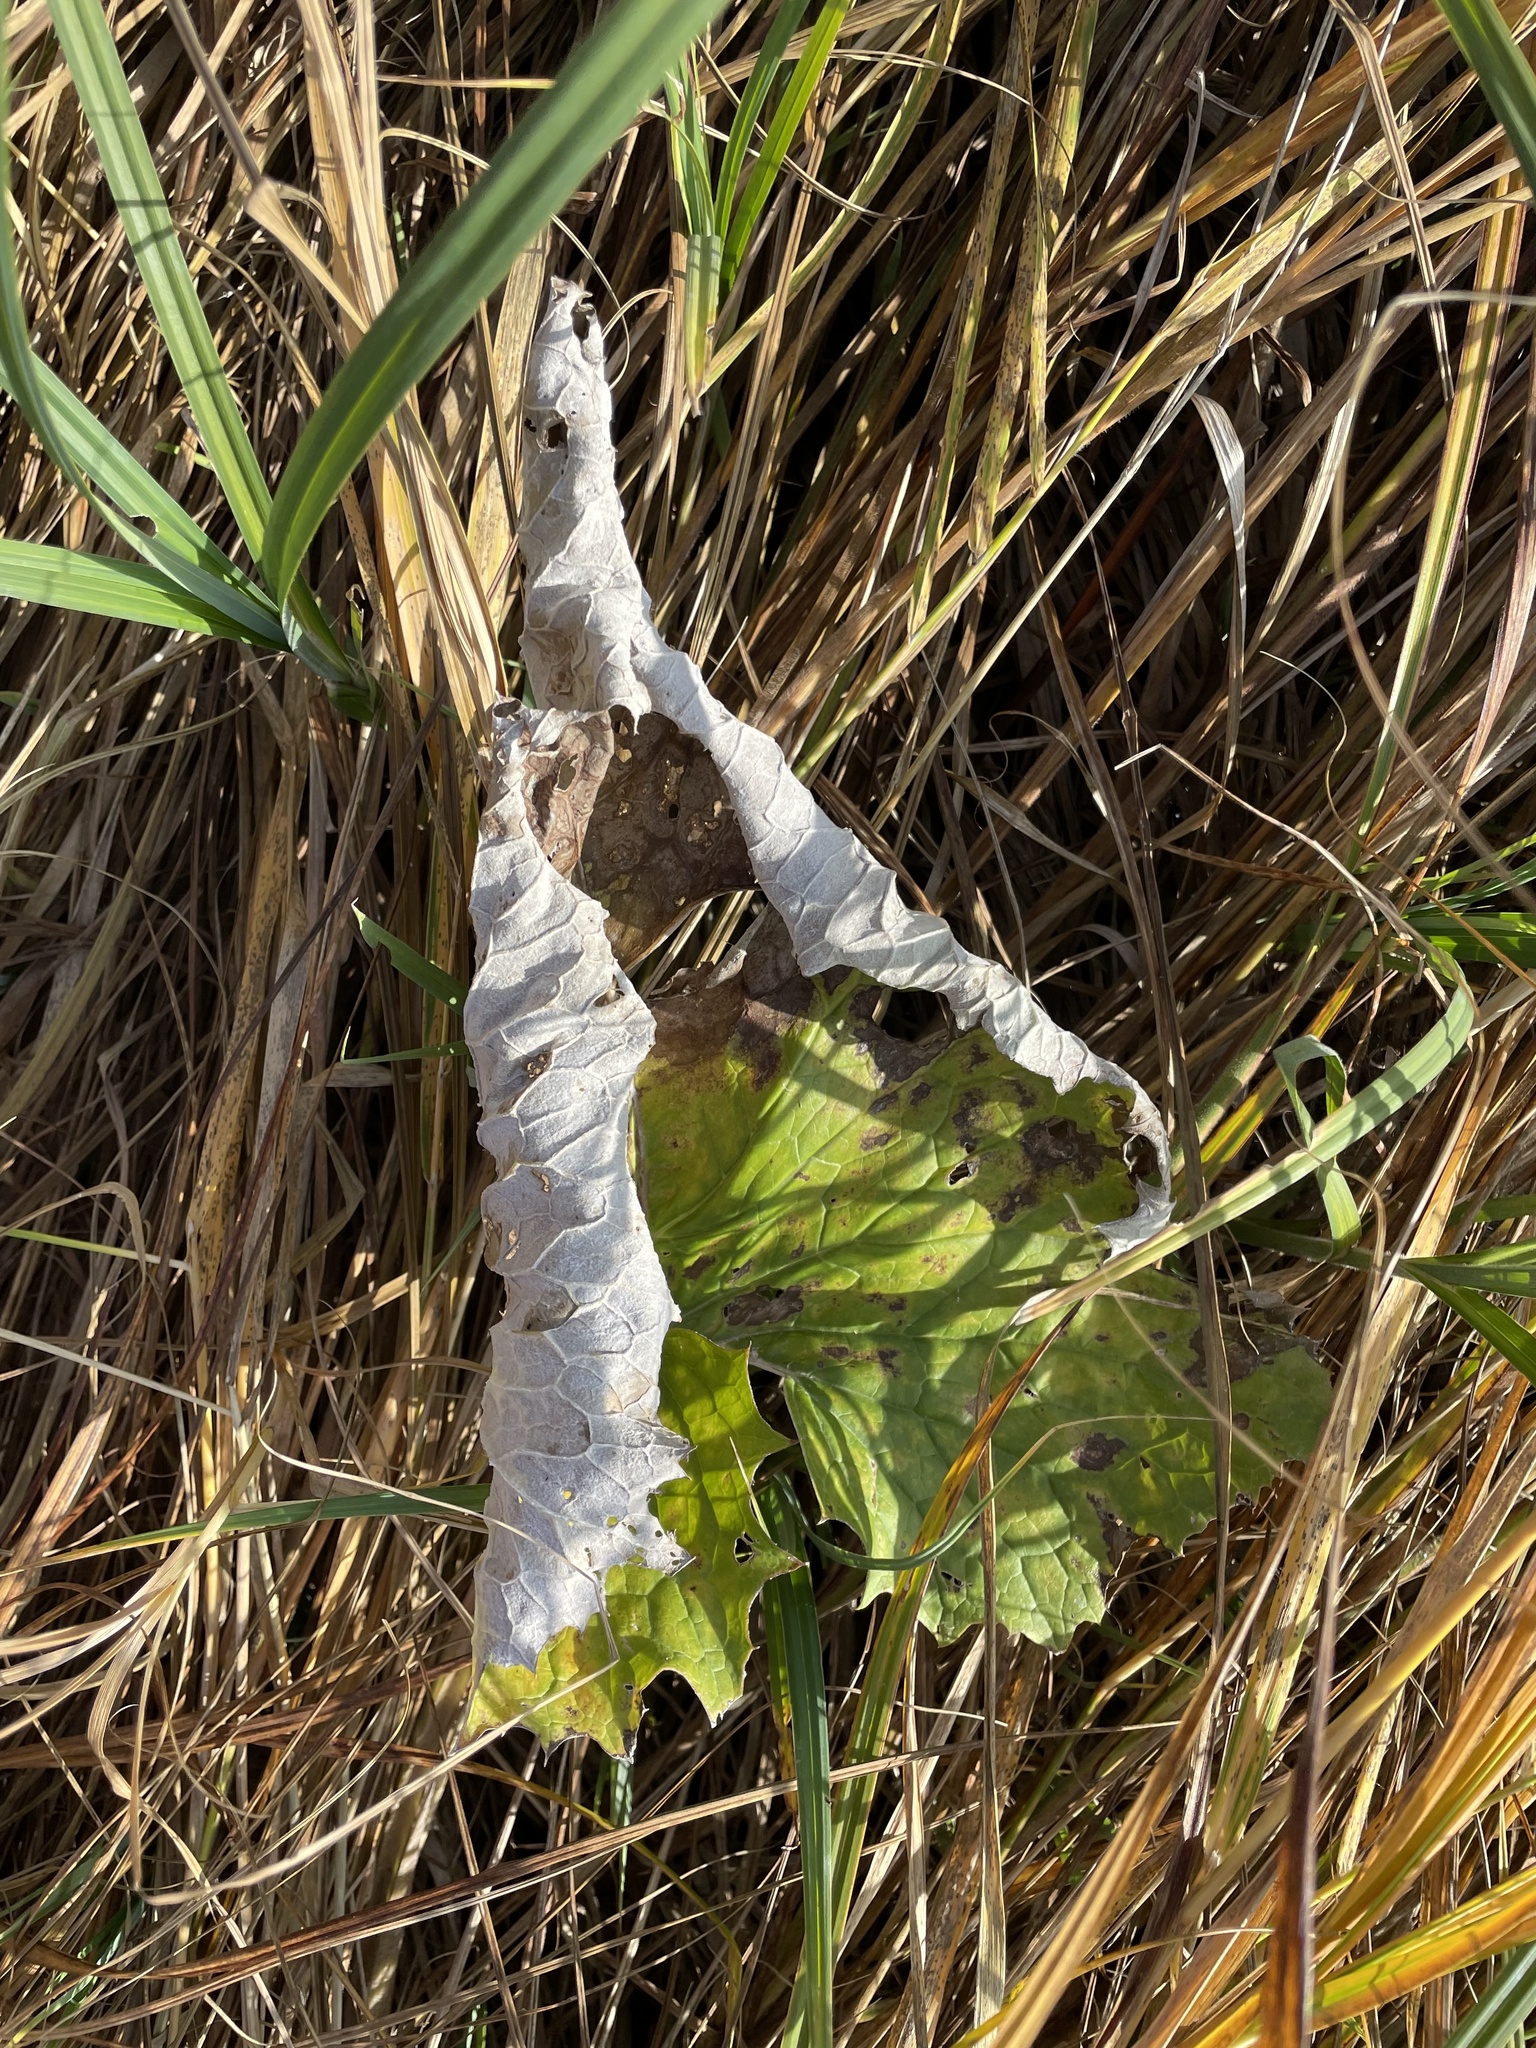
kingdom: Plantae
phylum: Tracheophyta
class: Magnoliopsida
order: Asterales
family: Asteraceae
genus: Petasites
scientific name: Petasites frigidus
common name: Arctic butterbur
